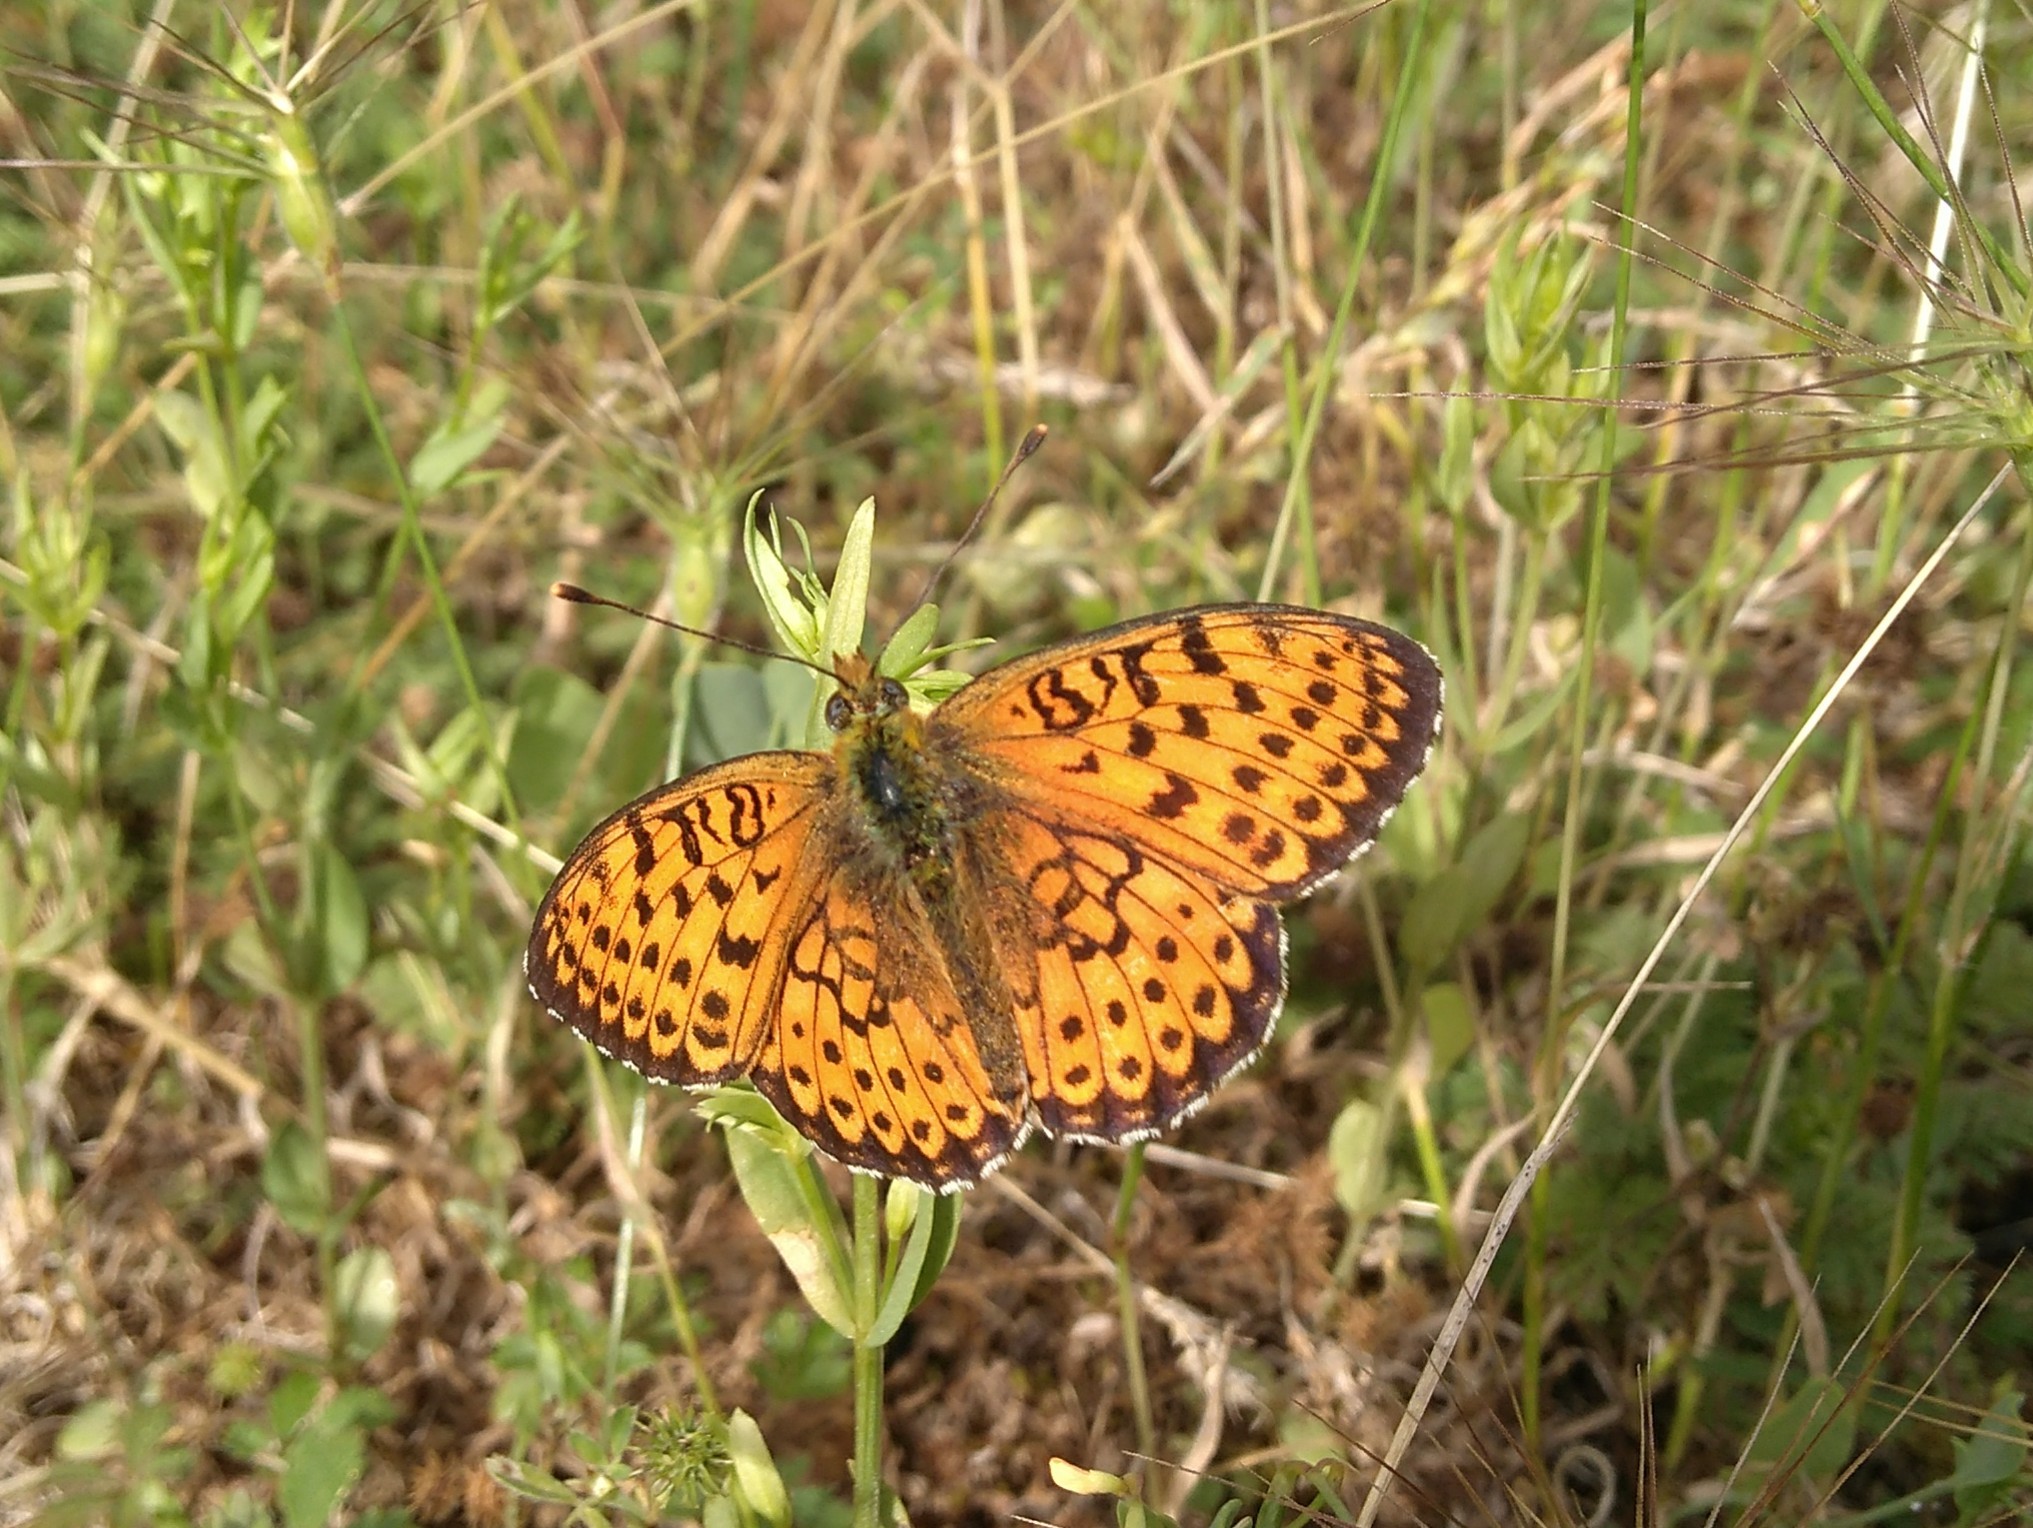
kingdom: Animalia
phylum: Arthropoda
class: Insecta
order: Lepidoptera
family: Nymphalidae
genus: Brenthis
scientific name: Brenthis hecate
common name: Twin-spot fritillary
